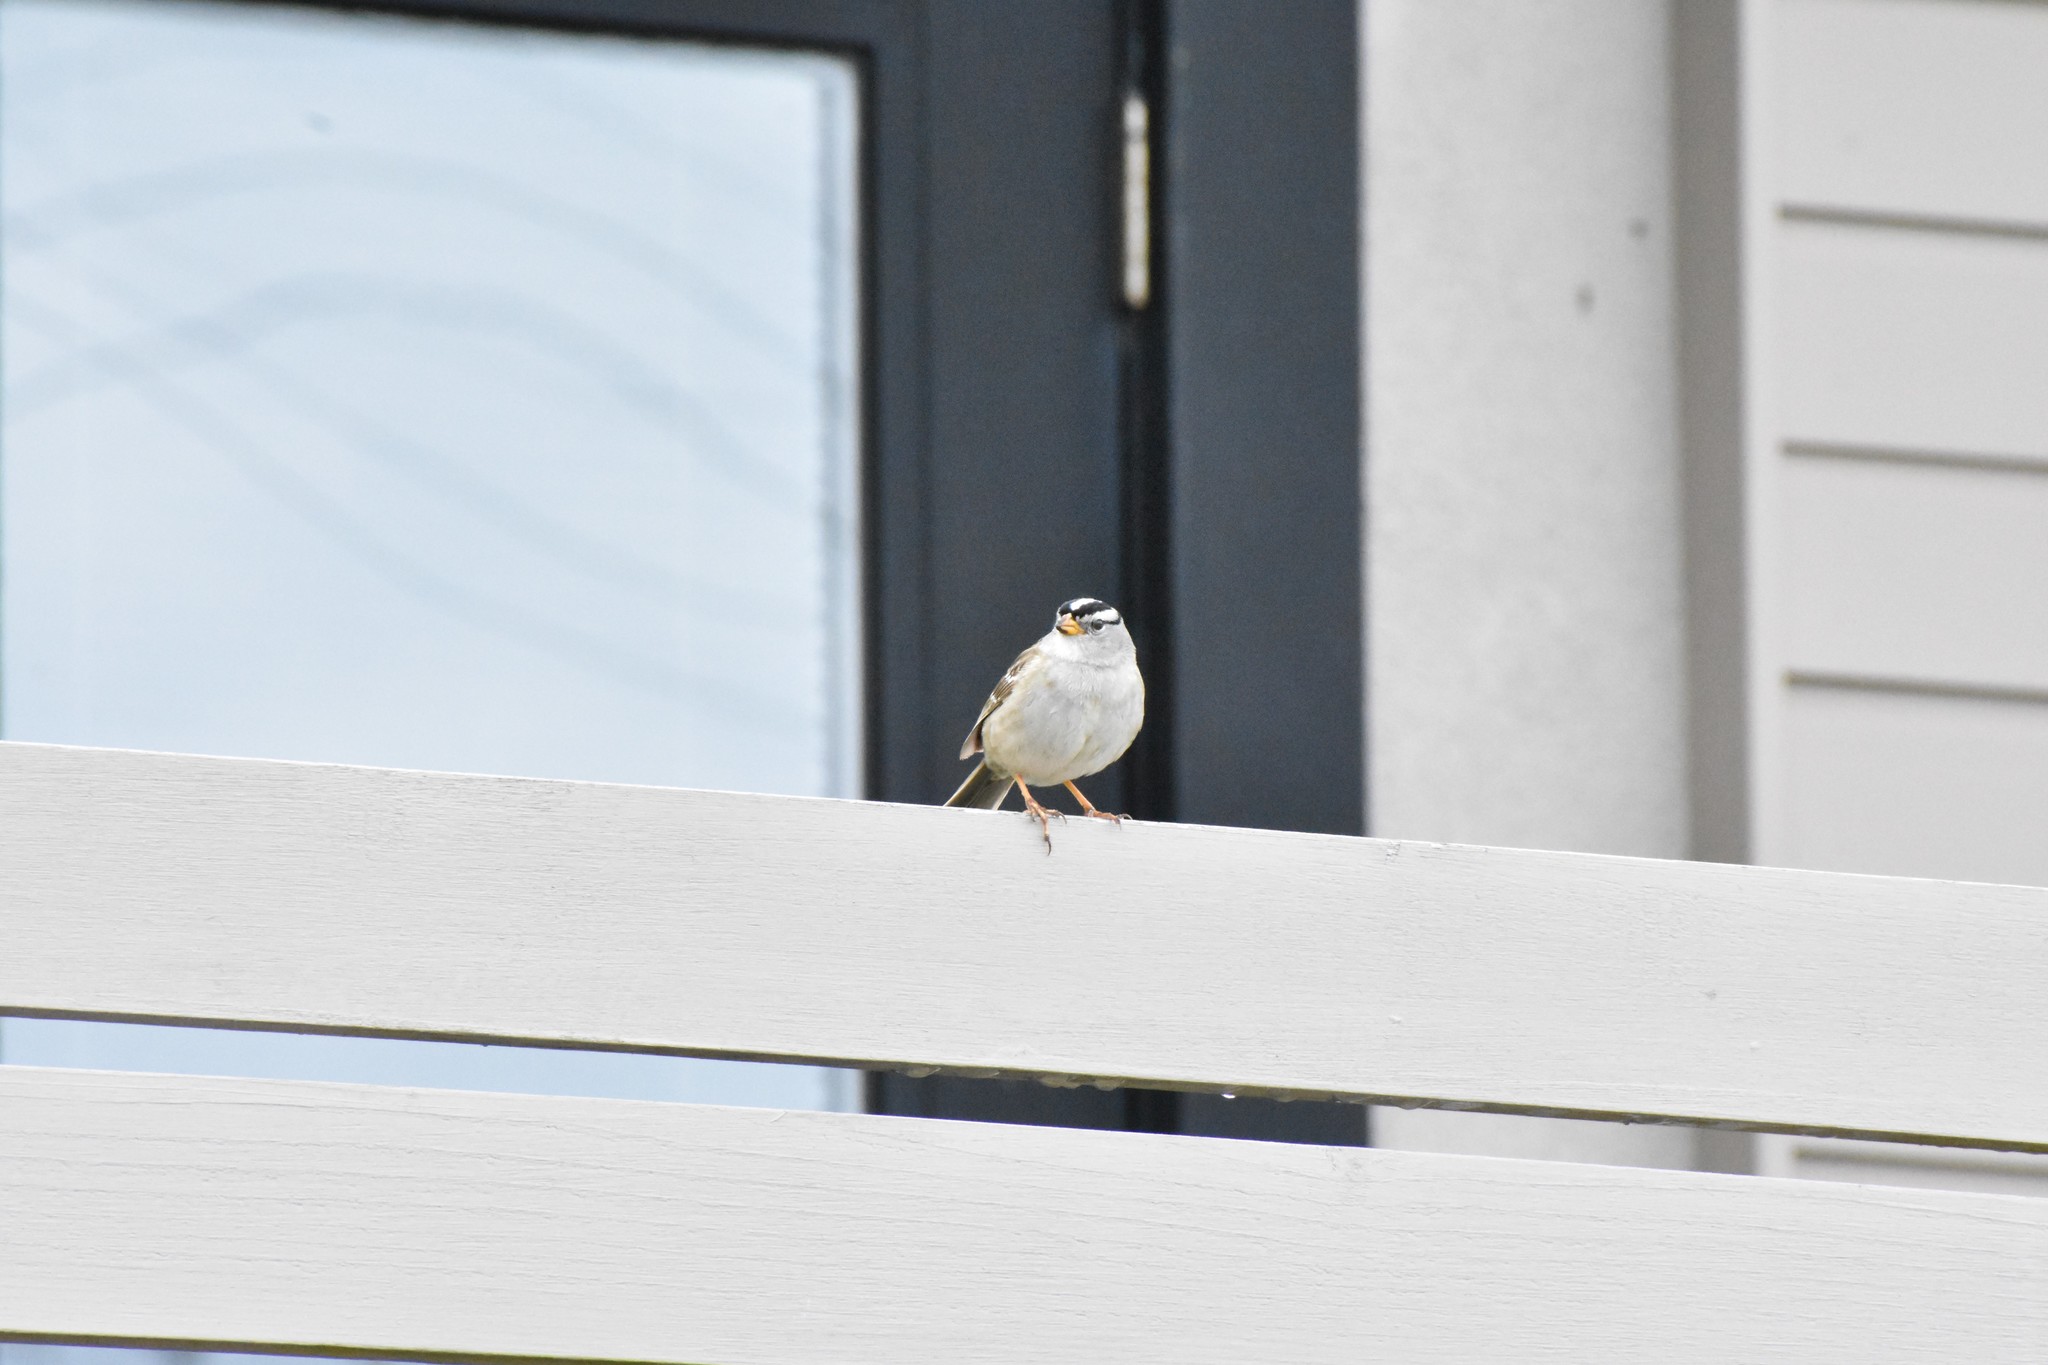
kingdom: Animalia
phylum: Chordata
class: Aves
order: Passeriformes
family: Passerellidae
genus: Zonotrichia
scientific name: Zonotrichia leucophrys
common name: White-crowned sparrow
